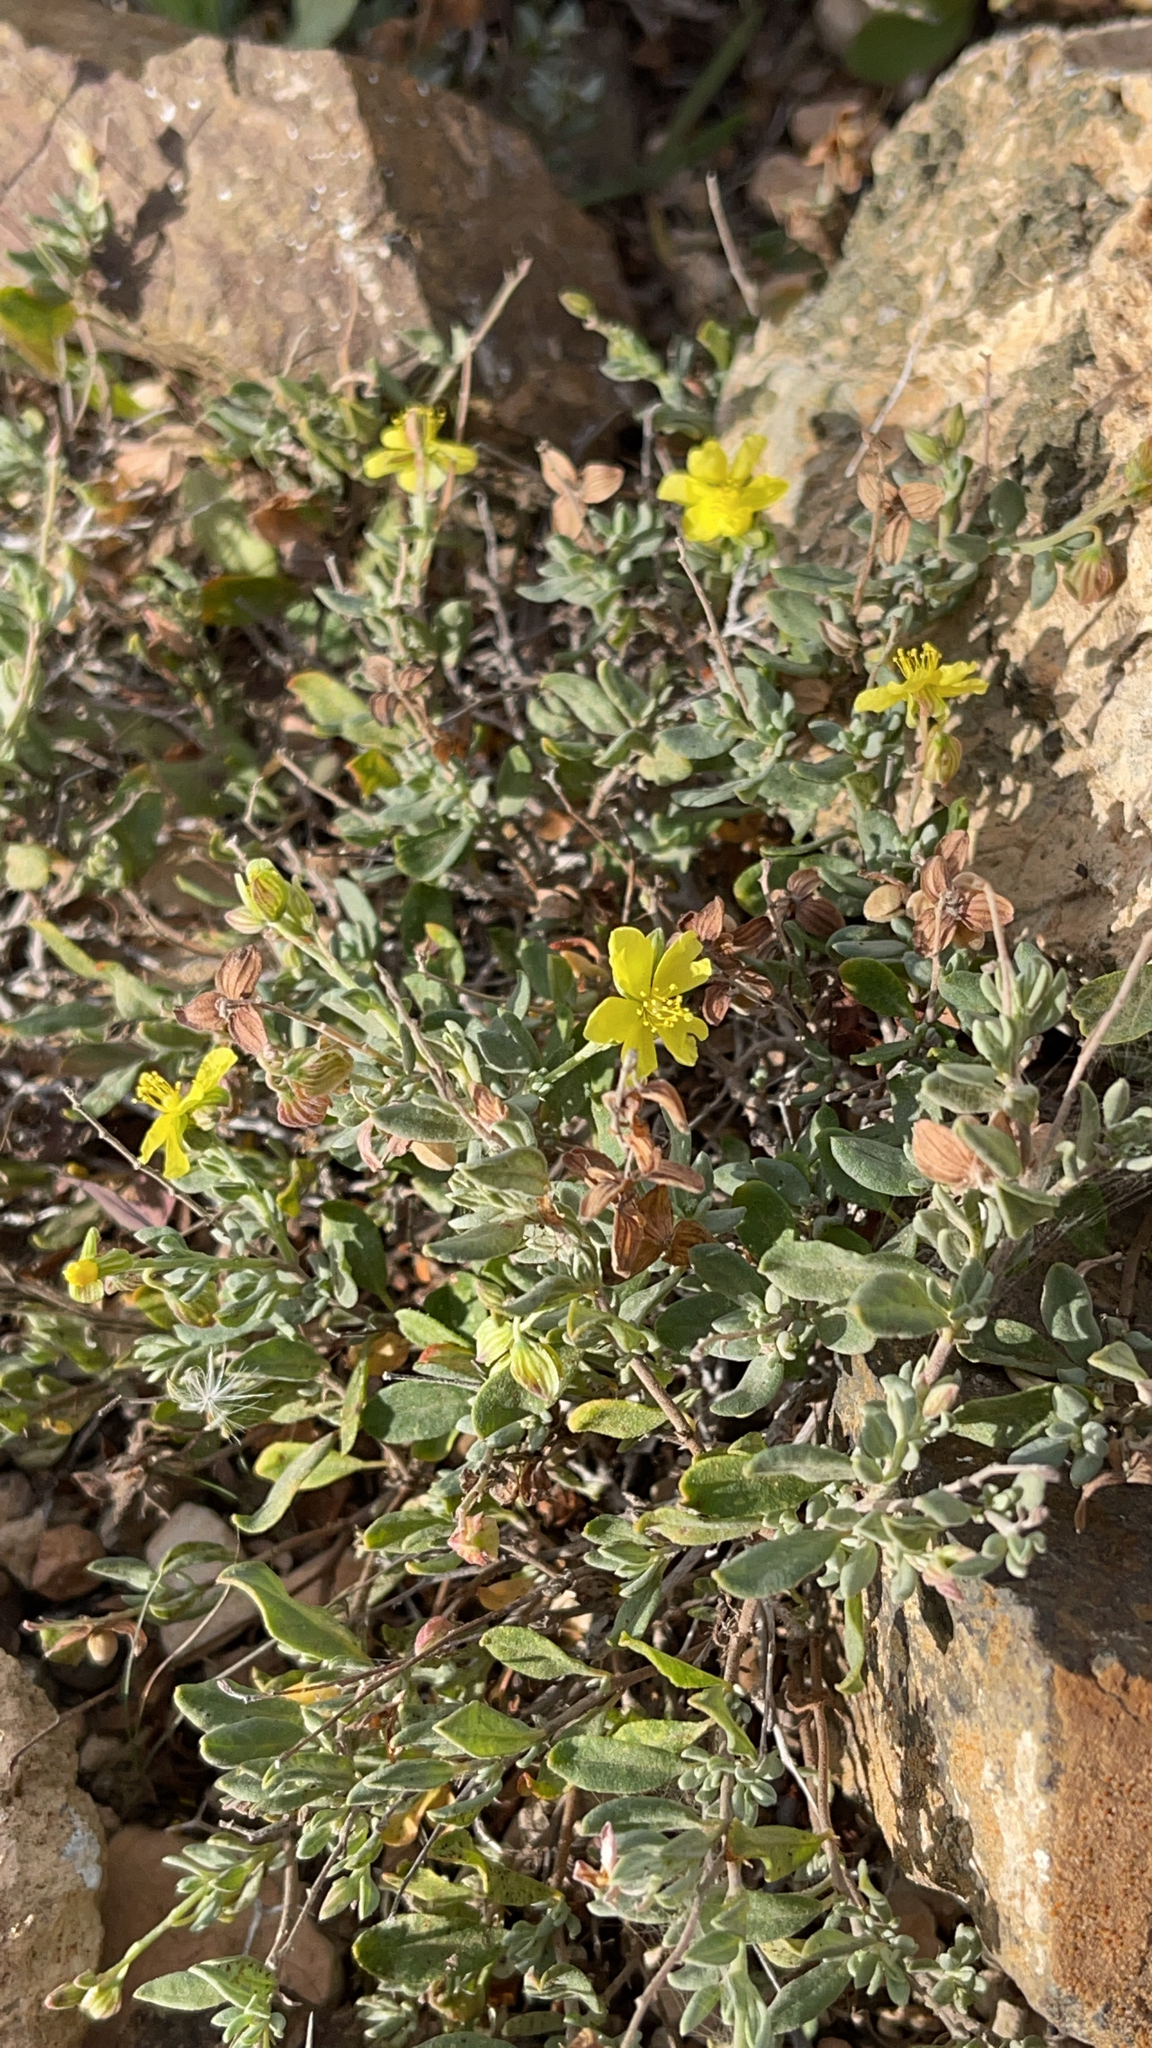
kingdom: Plantae
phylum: Tracheophyta
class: Magnoliopsida
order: Malvales
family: Cistaceae
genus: Helianthemum
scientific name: Helianthemum canariense
